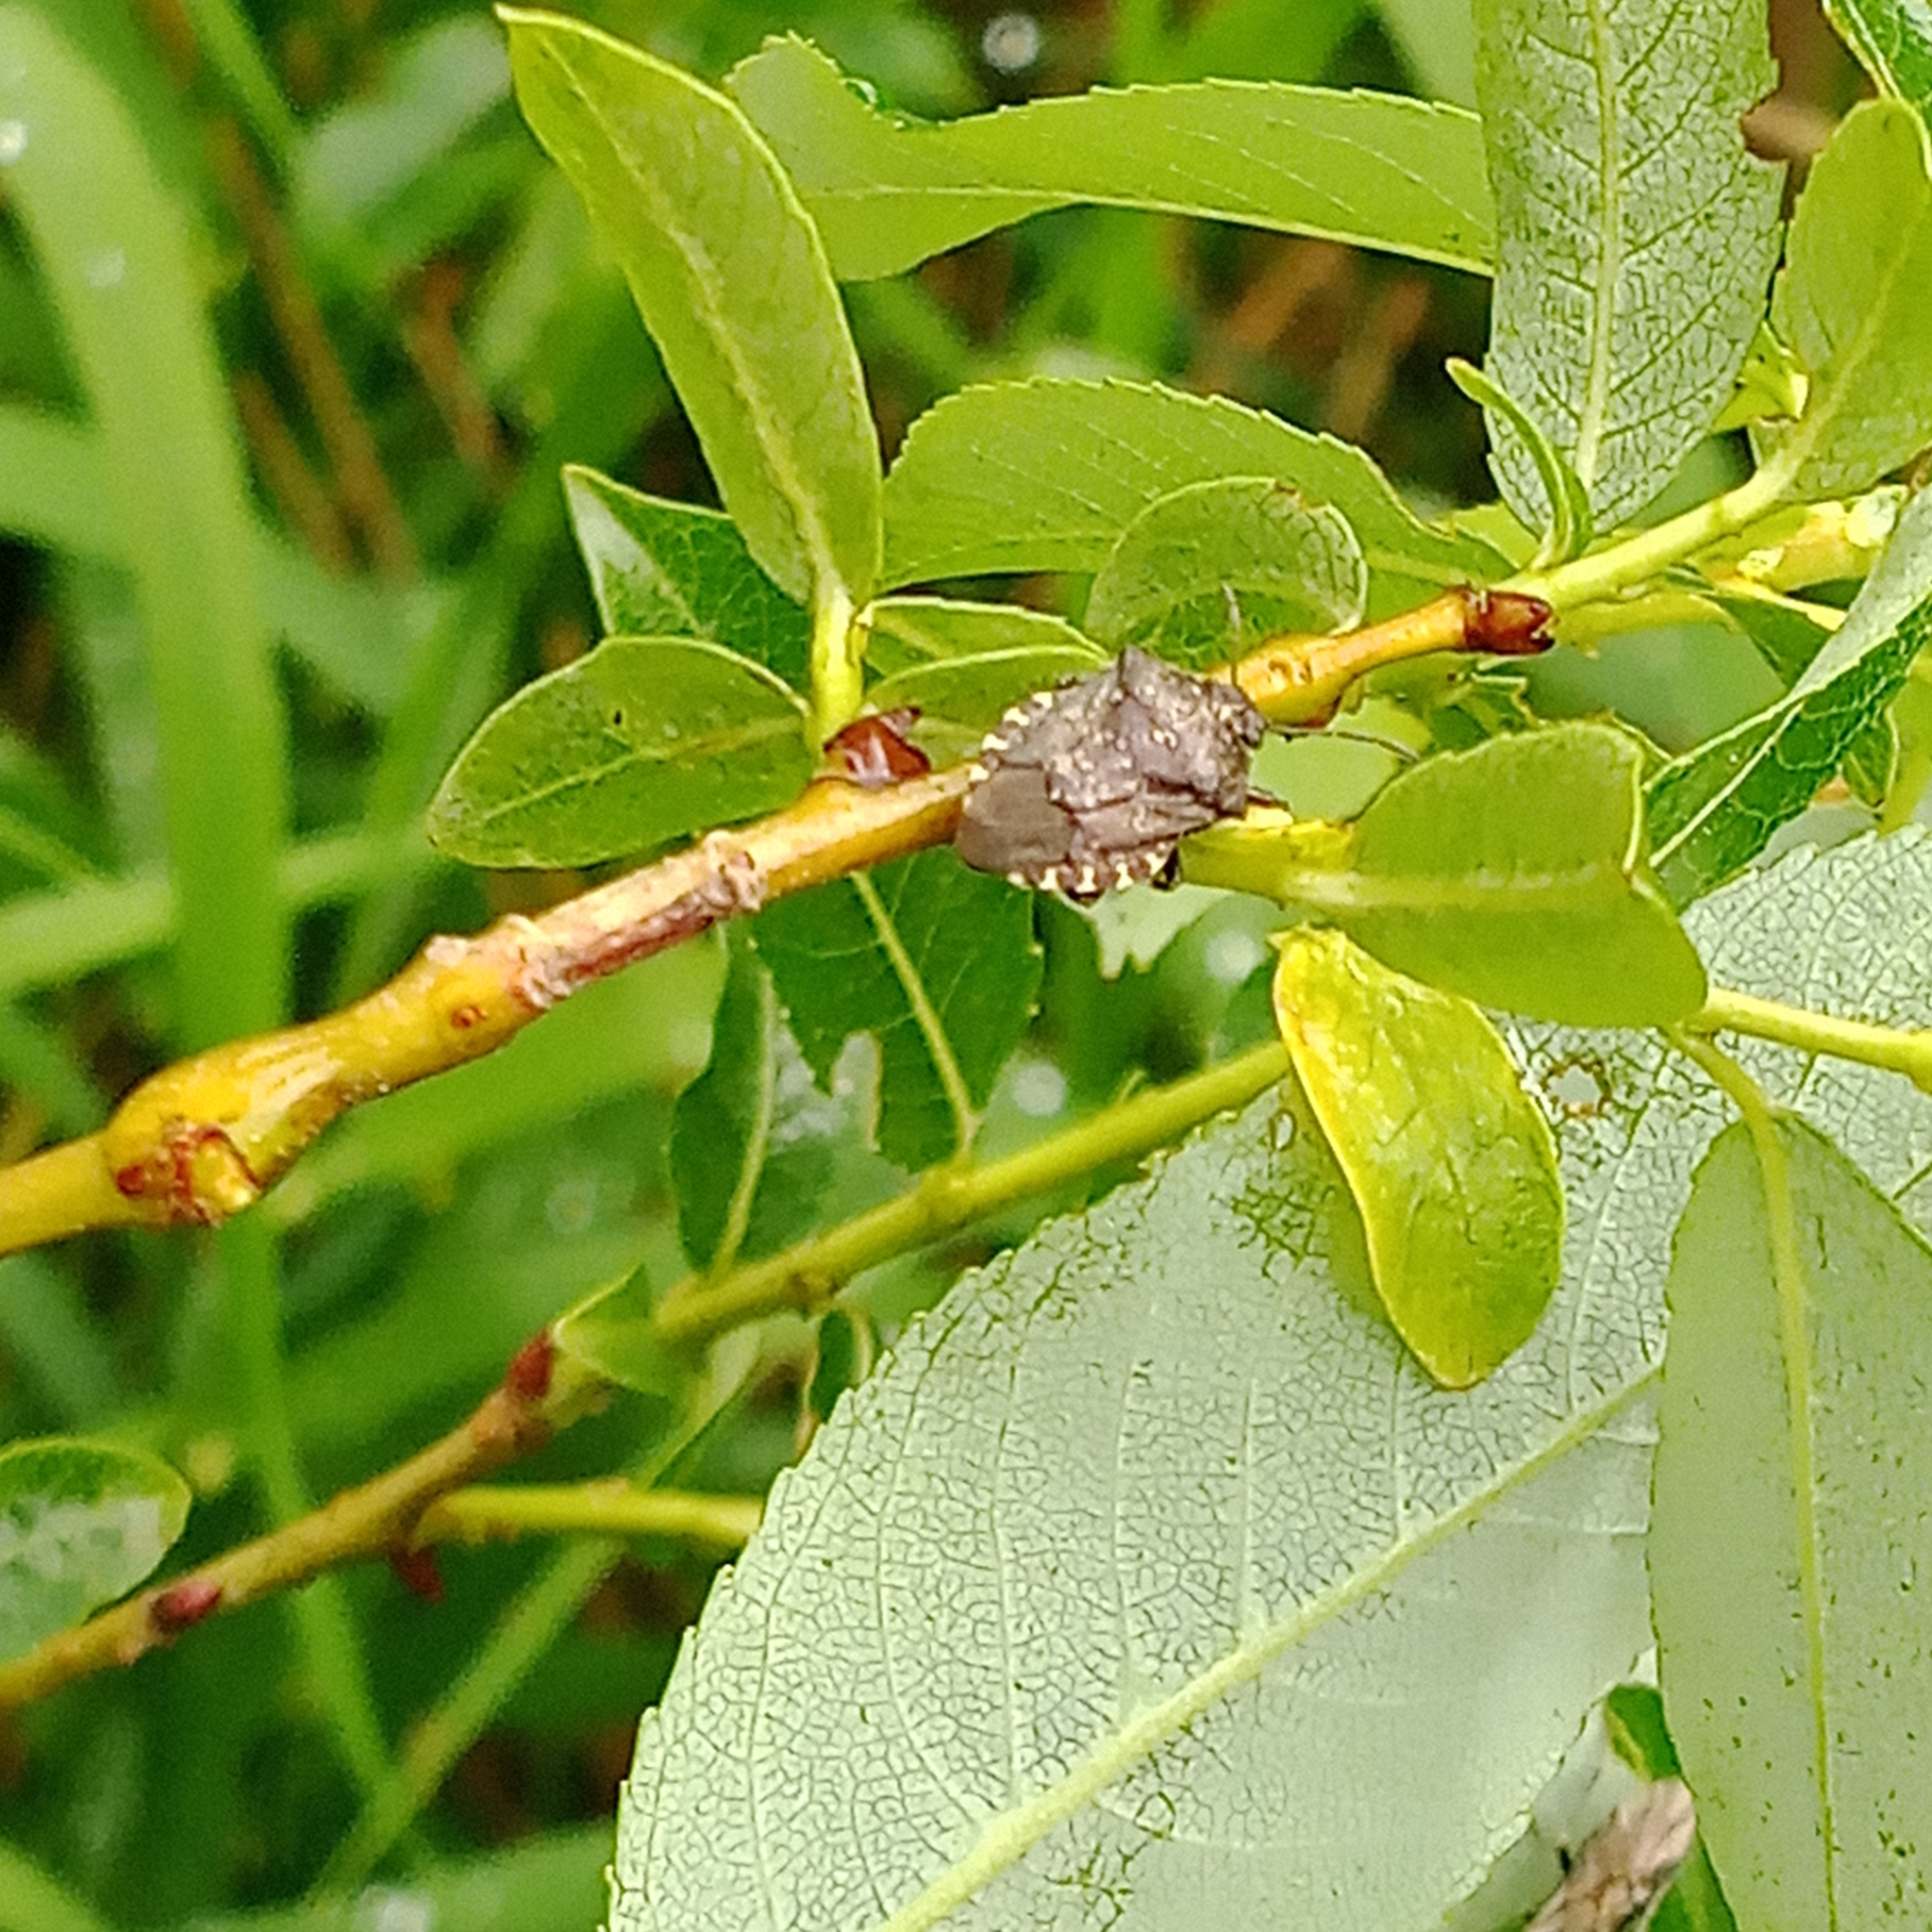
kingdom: Animalia
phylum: Arthropoda
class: Insecta
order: Hemiptera
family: Pentatomidae
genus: Rhacognathus
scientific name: Rhacognathus punctatus
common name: Heather bug
